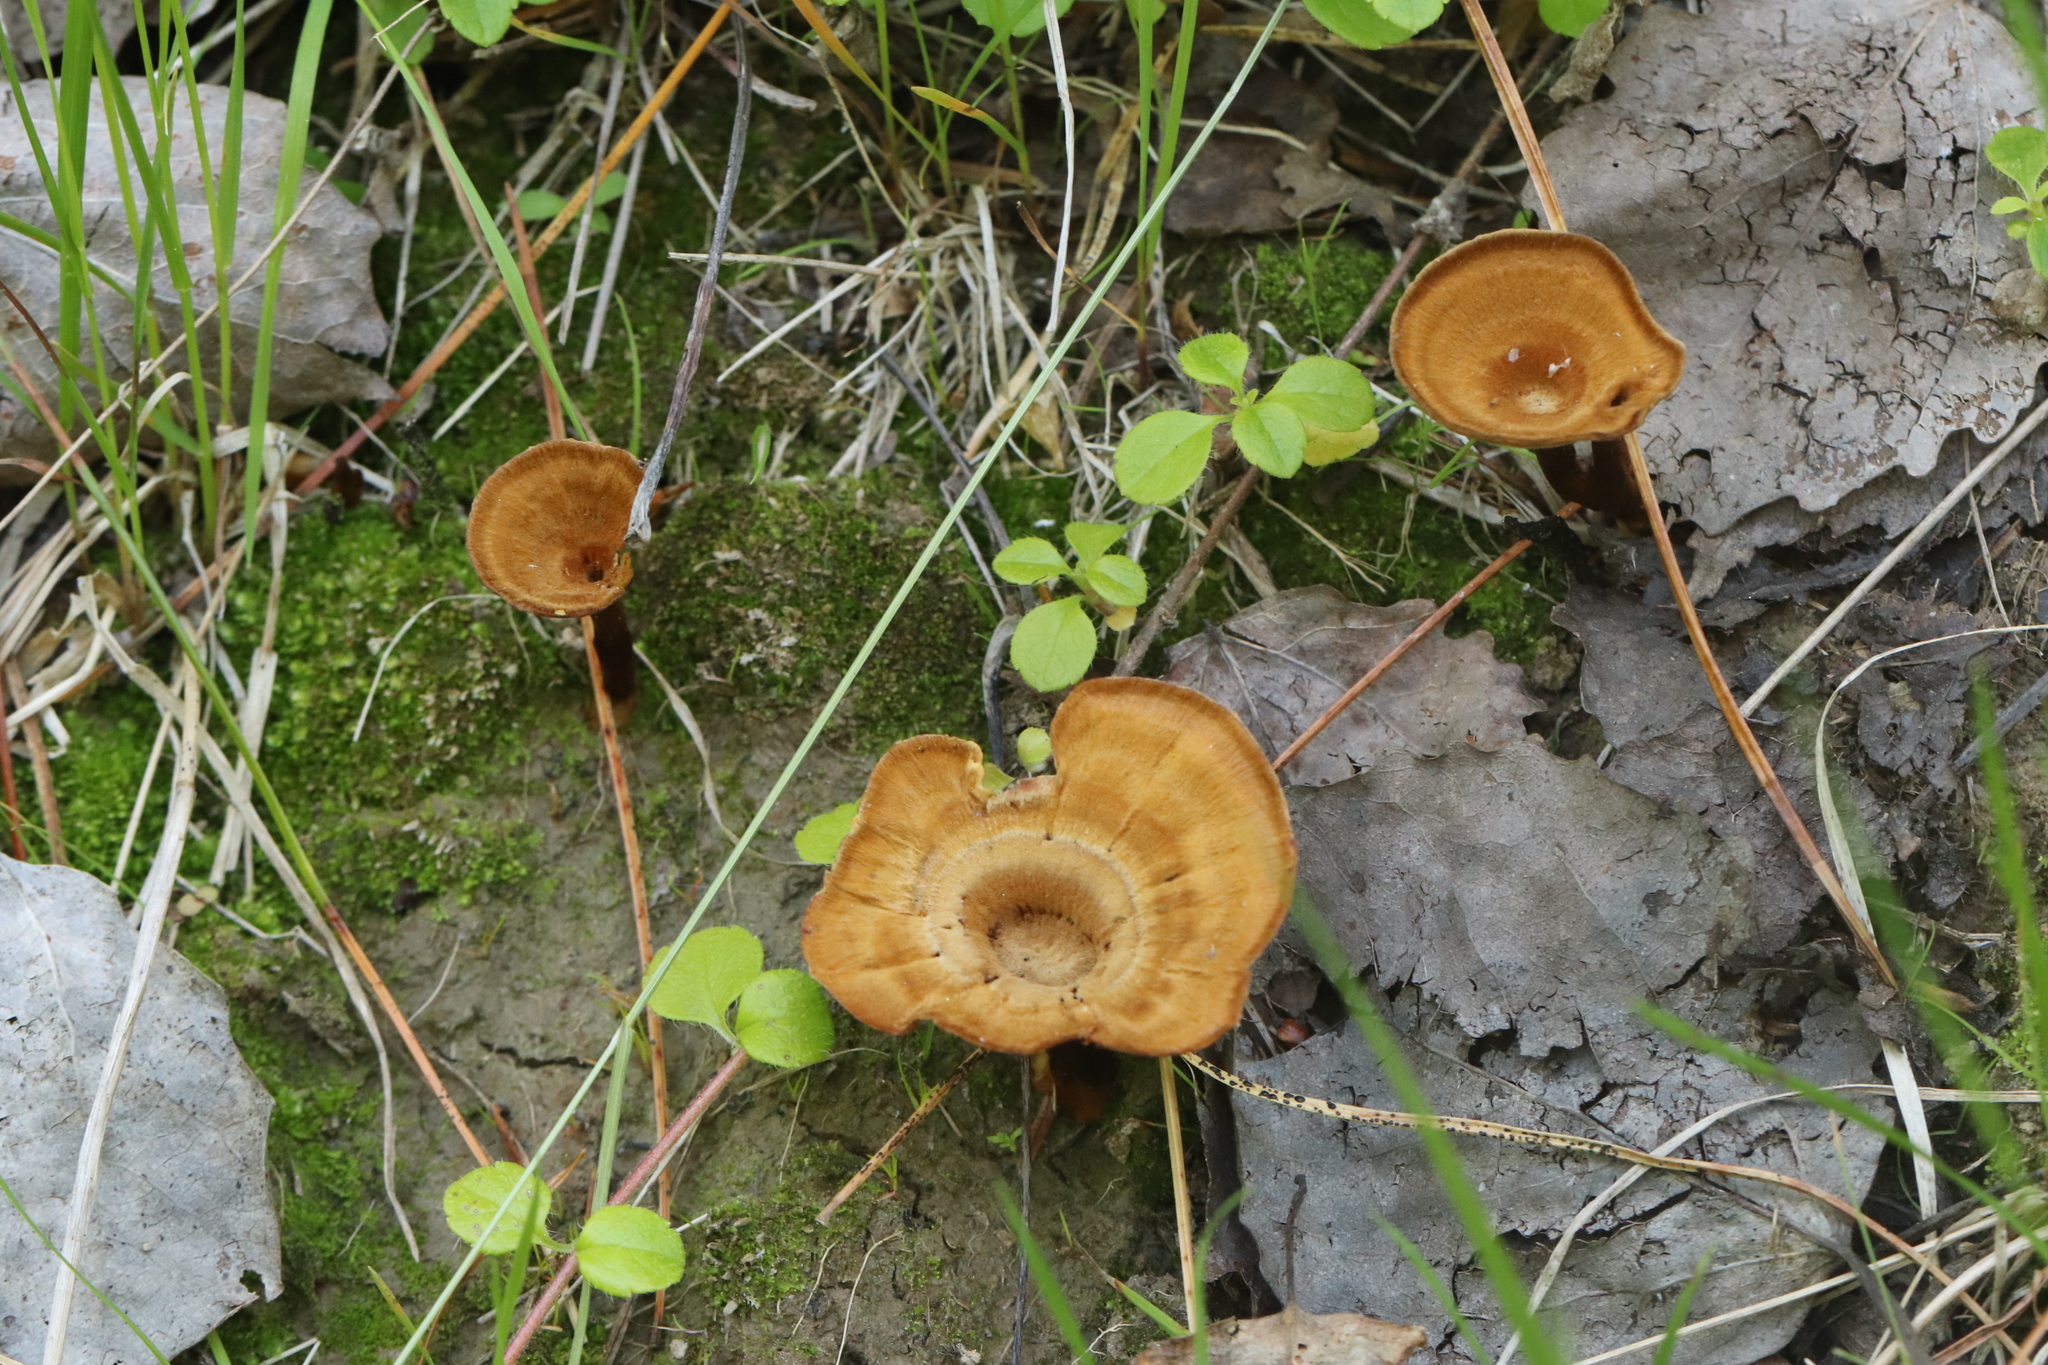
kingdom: Fungi
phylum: Basidiomycota
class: Agaricomycetes
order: Hymenochaetales
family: Hymenochaetaceae
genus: Coltricia
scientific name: Coltricia perennis
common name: Tiger's eye
